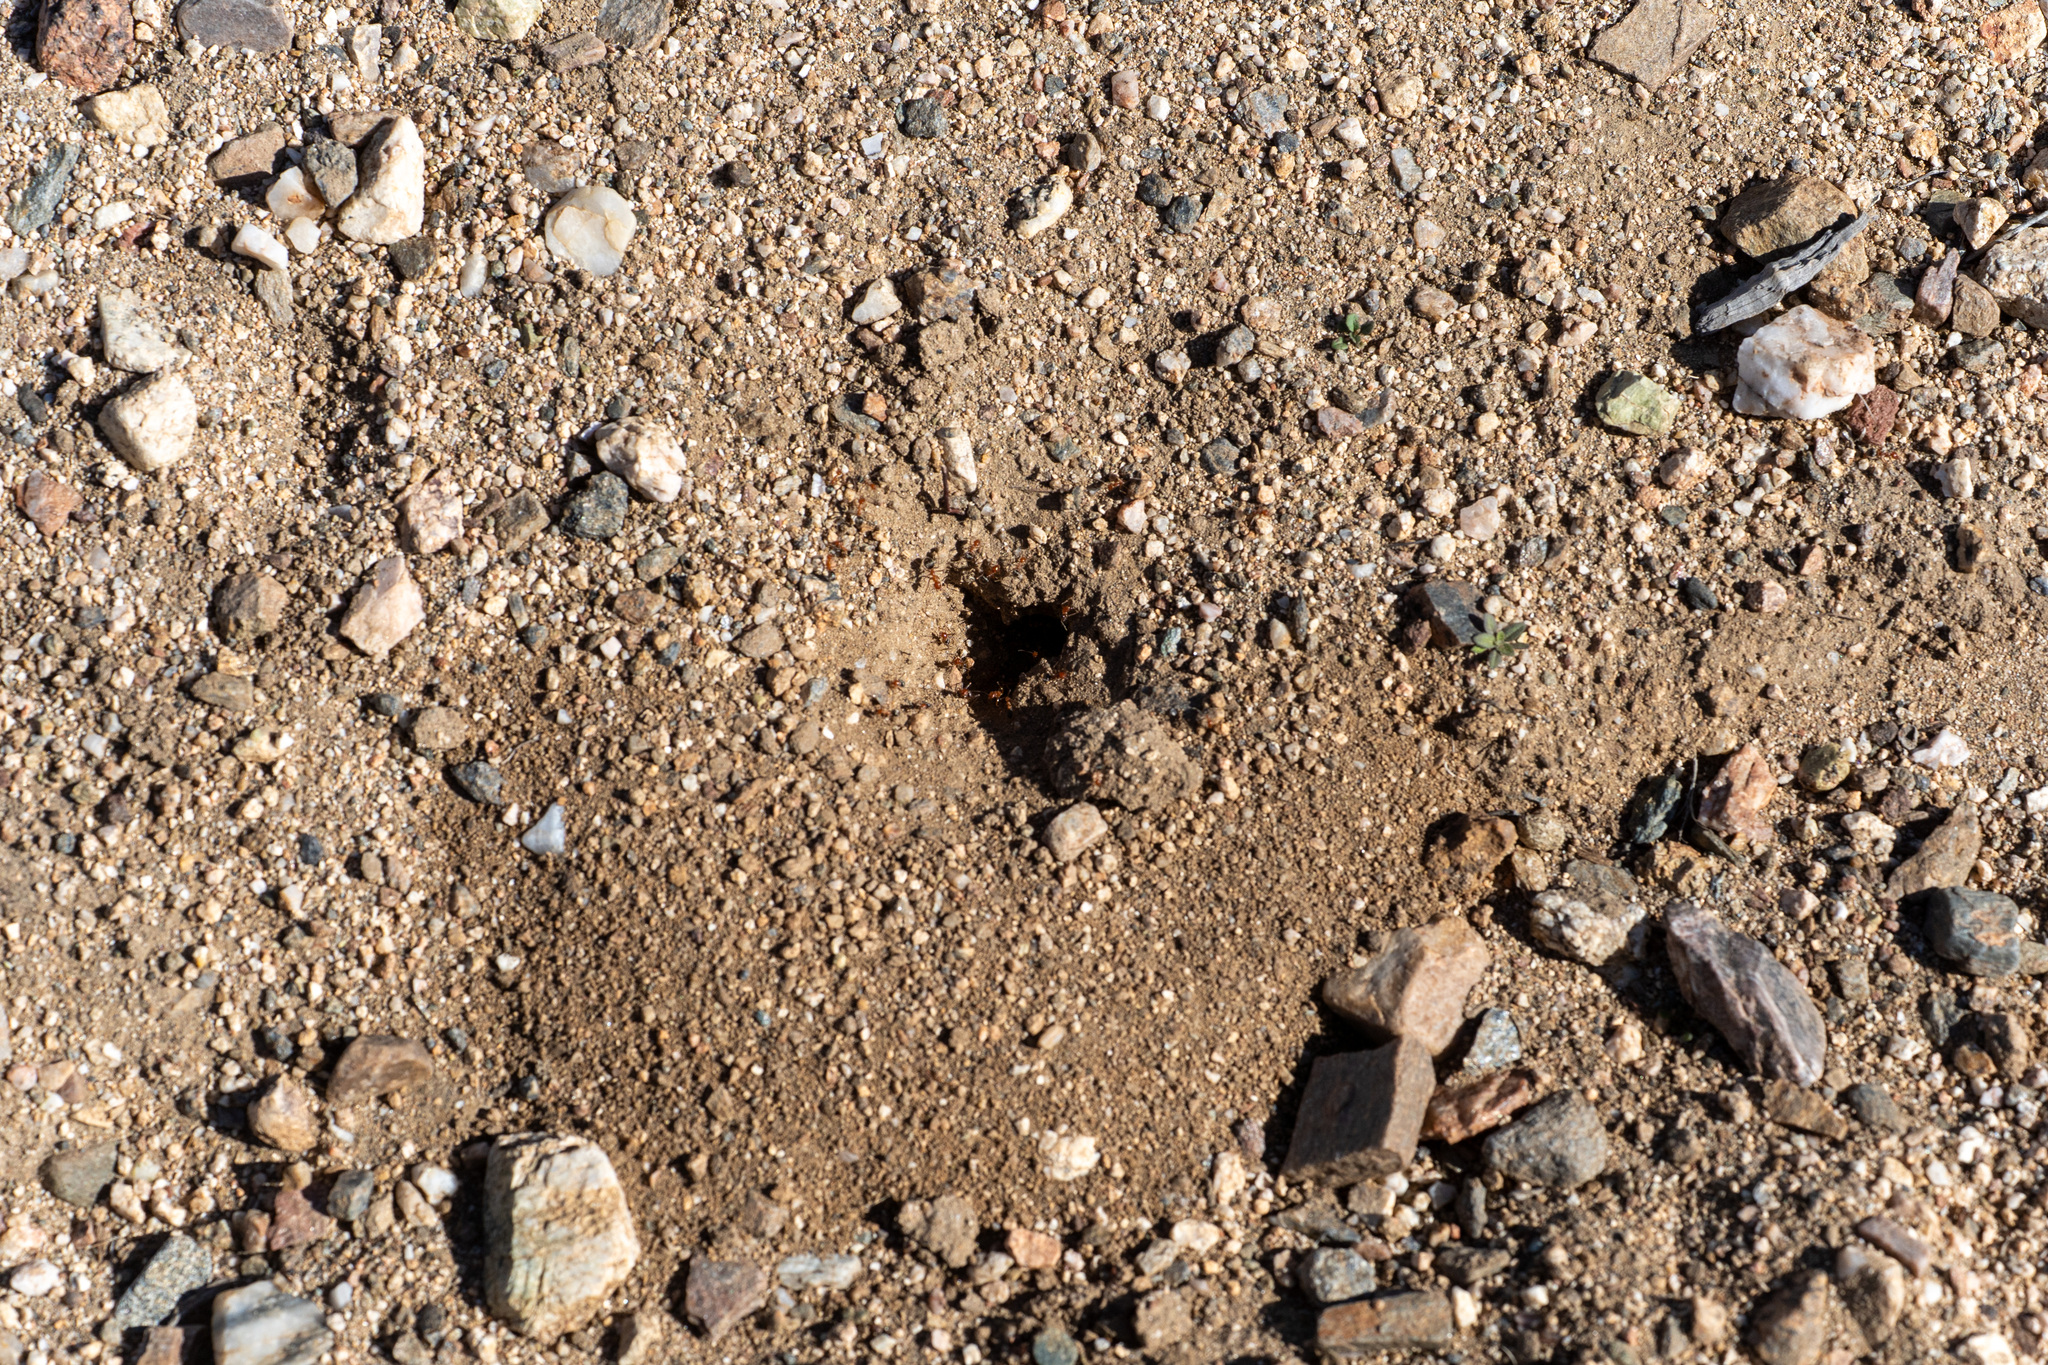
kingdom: Animalia
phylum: Arthropoda
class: Insecta
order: Hymenoptera
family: Formicidae
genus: Myrmecocystus
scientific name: Myrmecocystus semirufus
